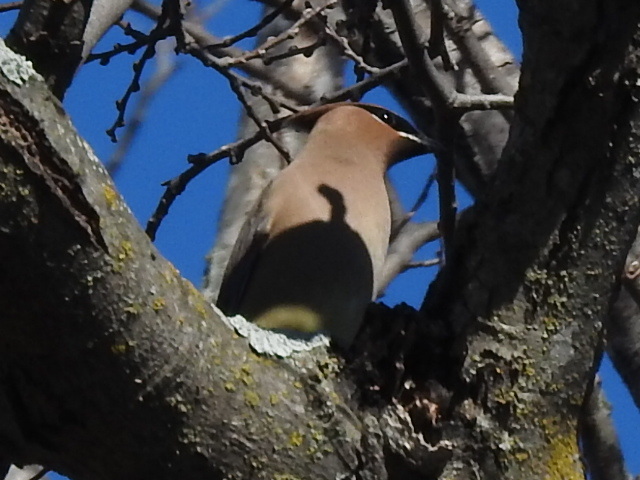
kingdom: Animalia
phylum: Chordata
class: Aves
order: Passeriformes
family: Bombycillidae
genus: Bombycilla
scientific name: Bombycilla cedrorum
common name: Cedar waxwing
